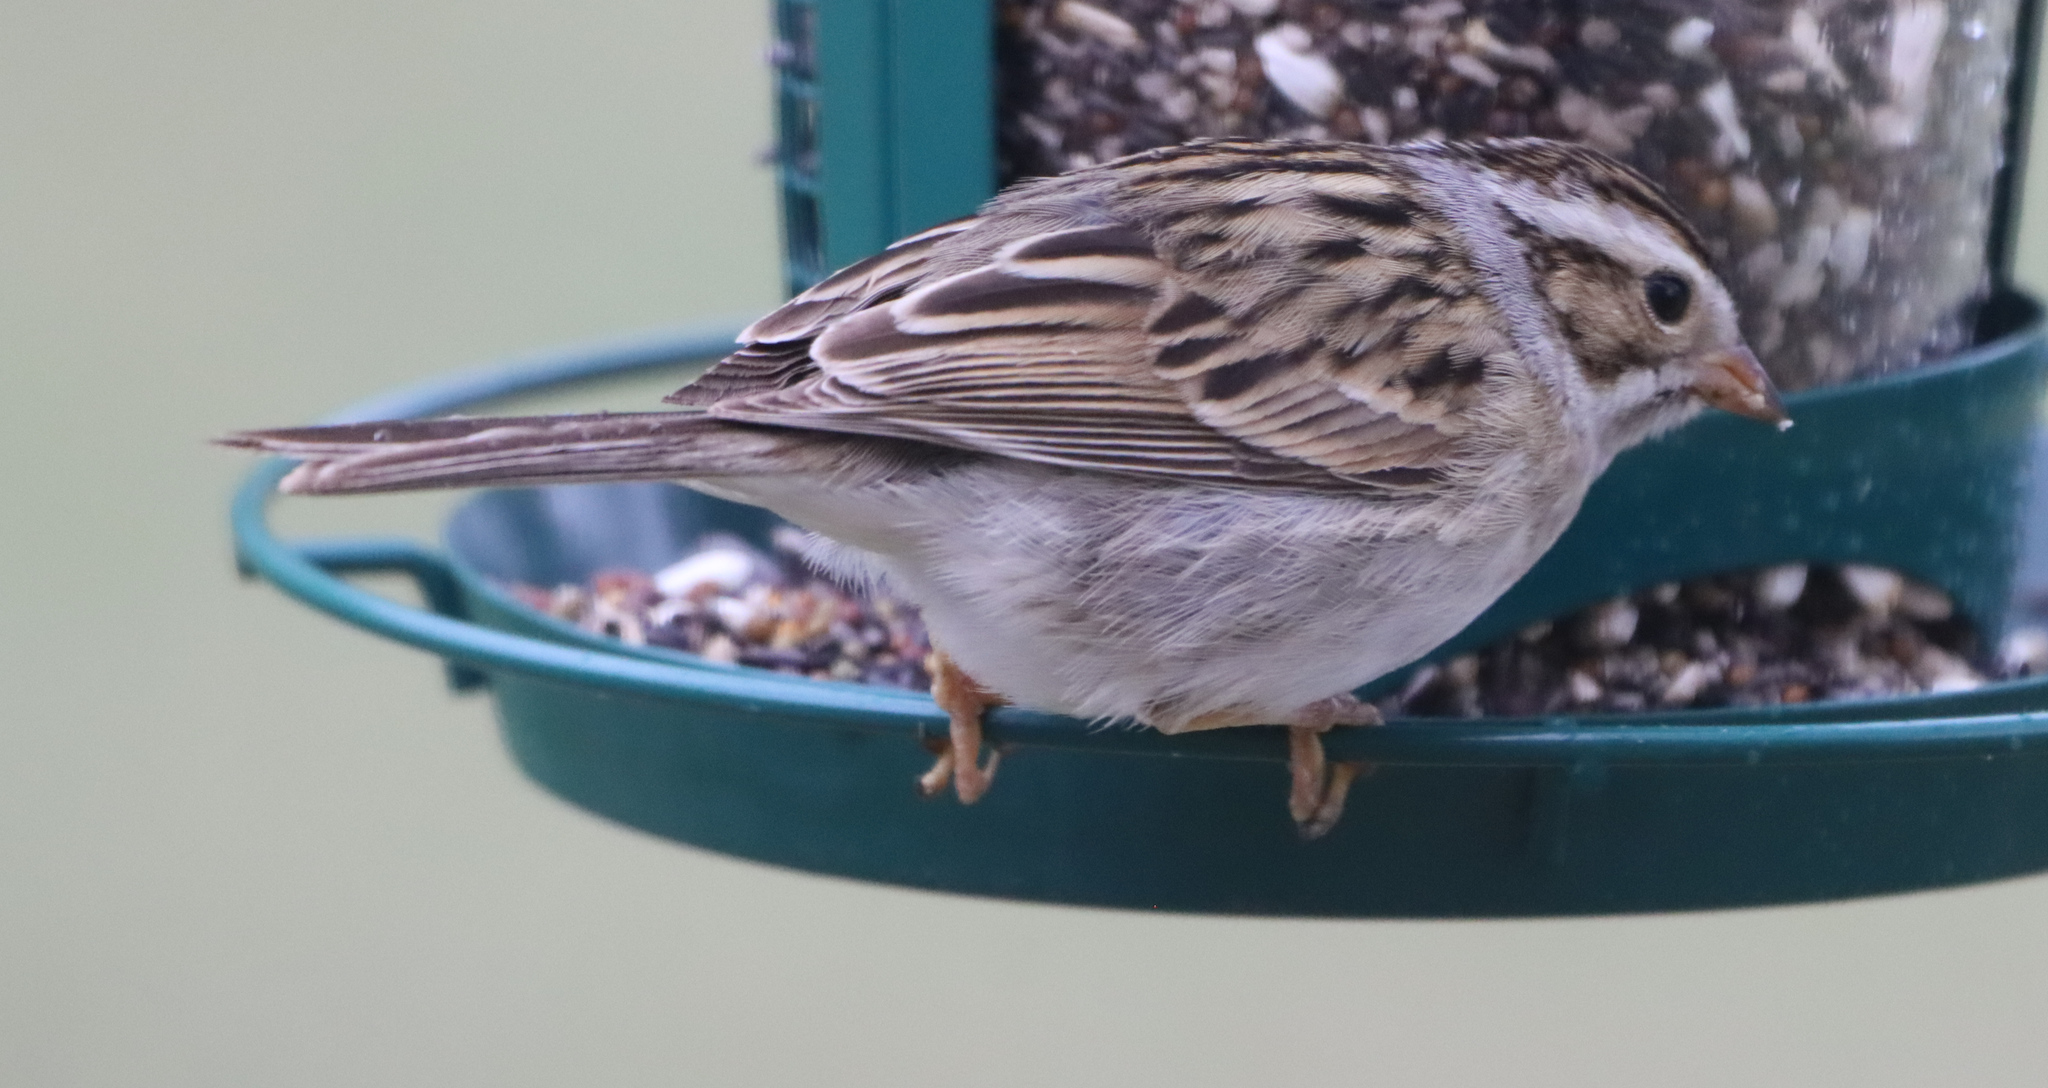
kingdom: Animalia
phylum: Chordata
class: Aves
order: Passeriformes
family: Passerellidae
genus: Spizella
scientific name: Spizella pallida
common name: Clay-colored sparrow
